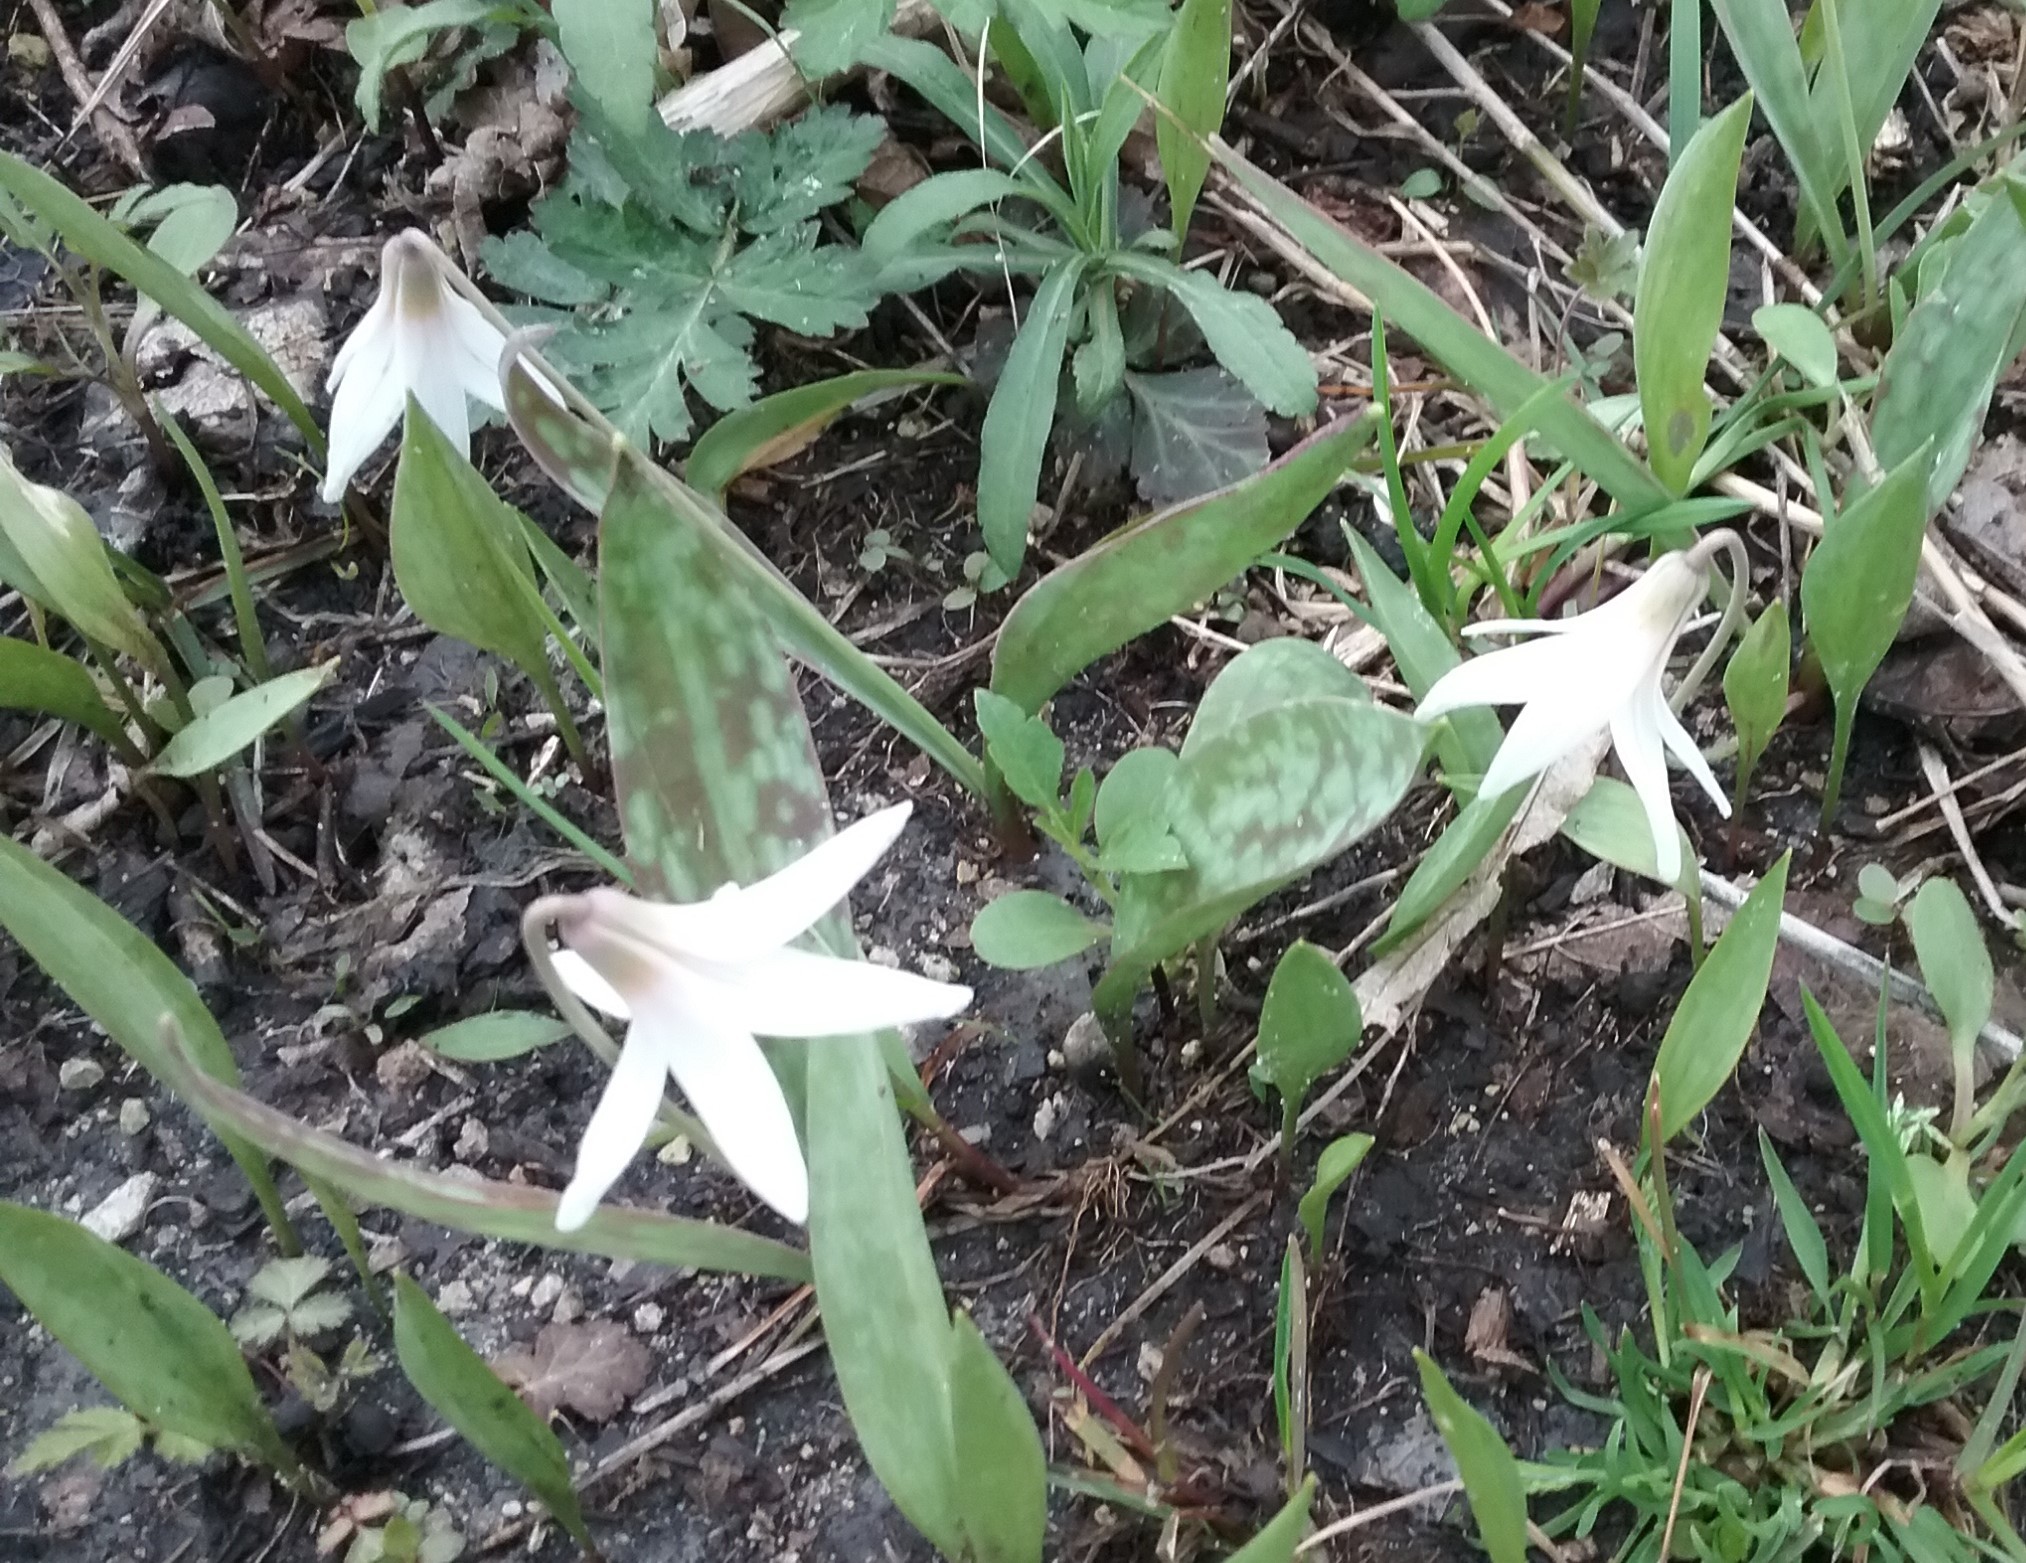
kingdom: Plantae
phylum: Tracheophyta
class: Liliopsida
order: Liliales
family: Liliaceae
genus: Erythronium
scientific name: Erythronium albidum
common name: White trout-lily
